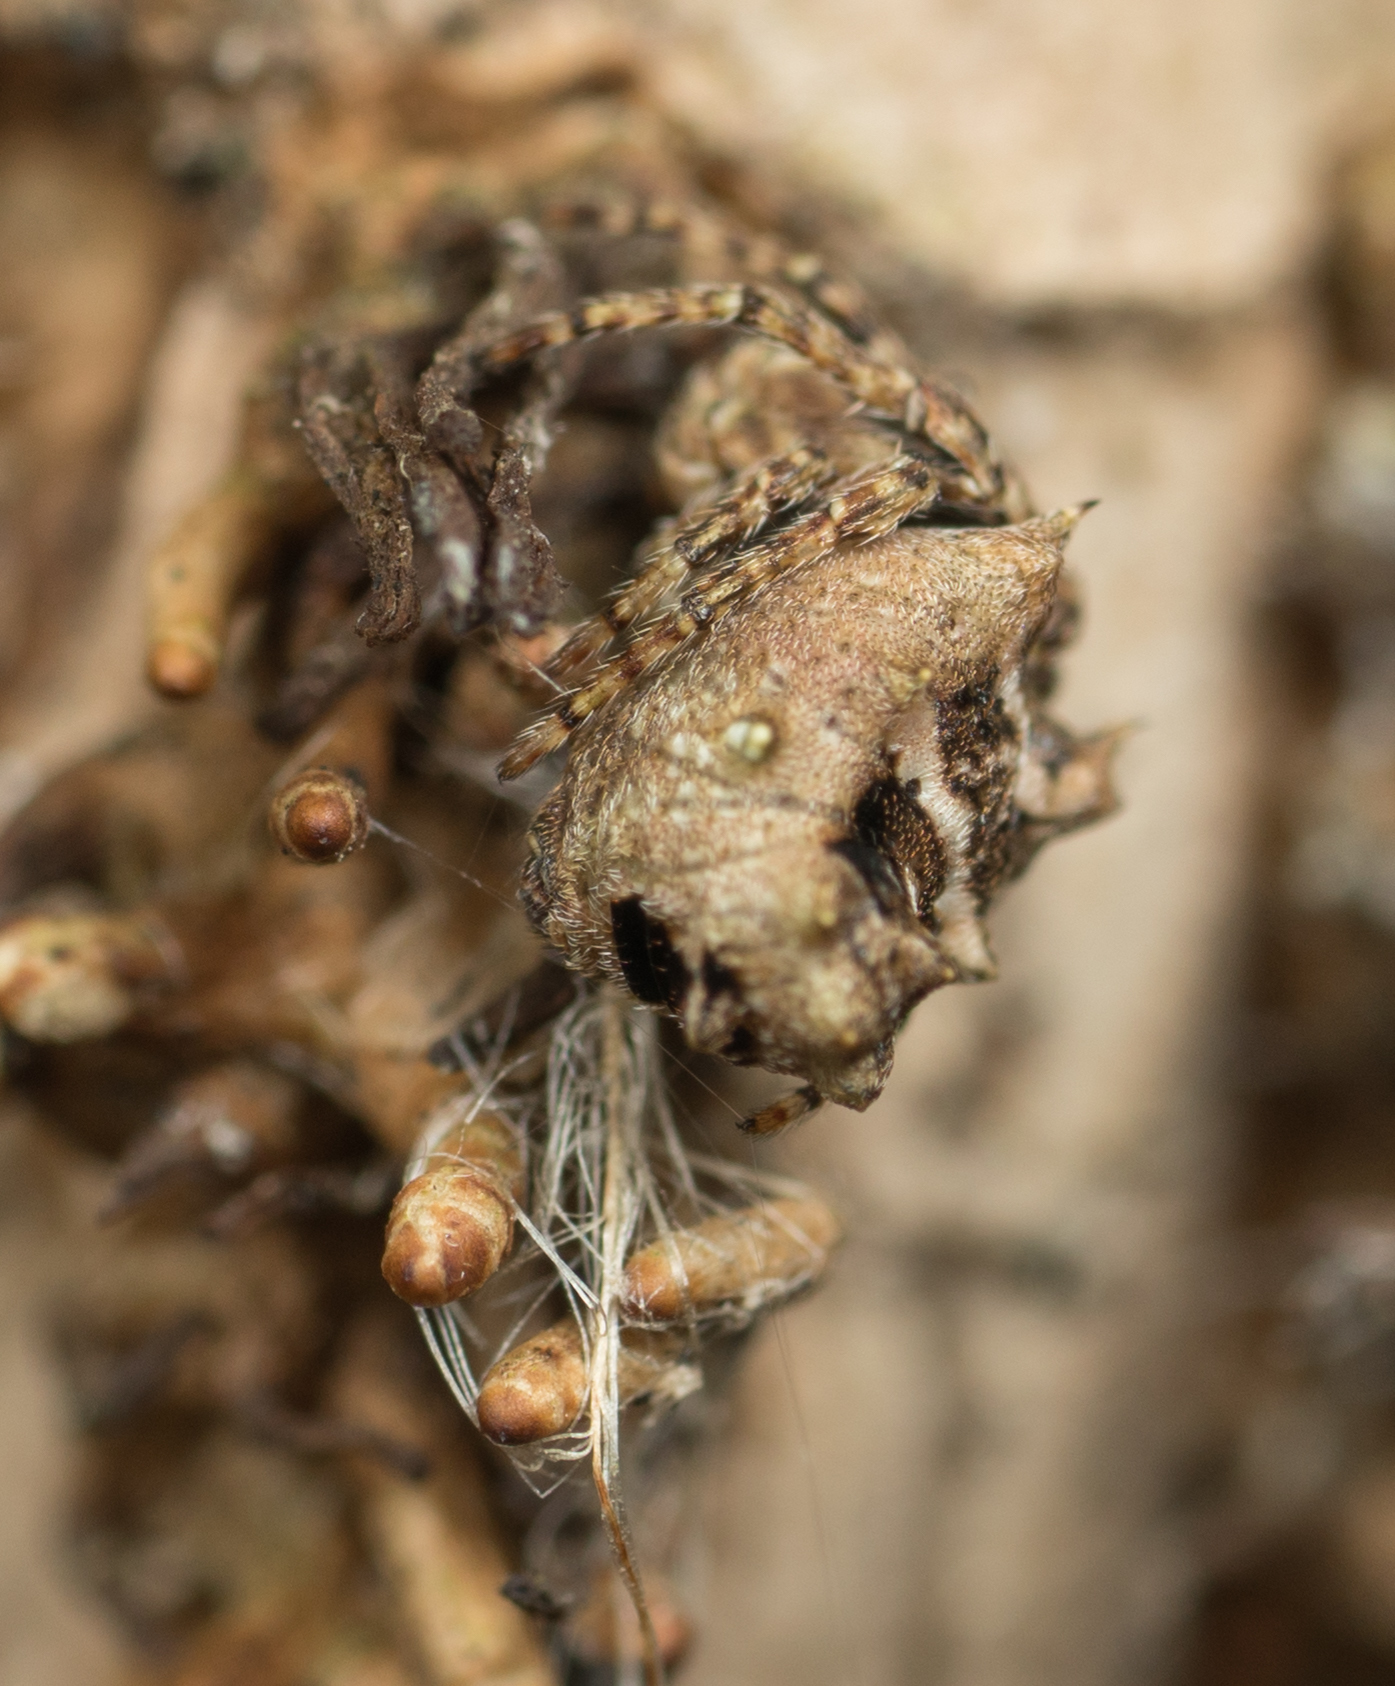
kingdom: Animalia
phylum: Arthropoda
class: Arachnida
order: Araneae
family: Araneidae
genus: Wagneriana
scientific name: Wagneriana tauricornis
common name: Orb weavers
